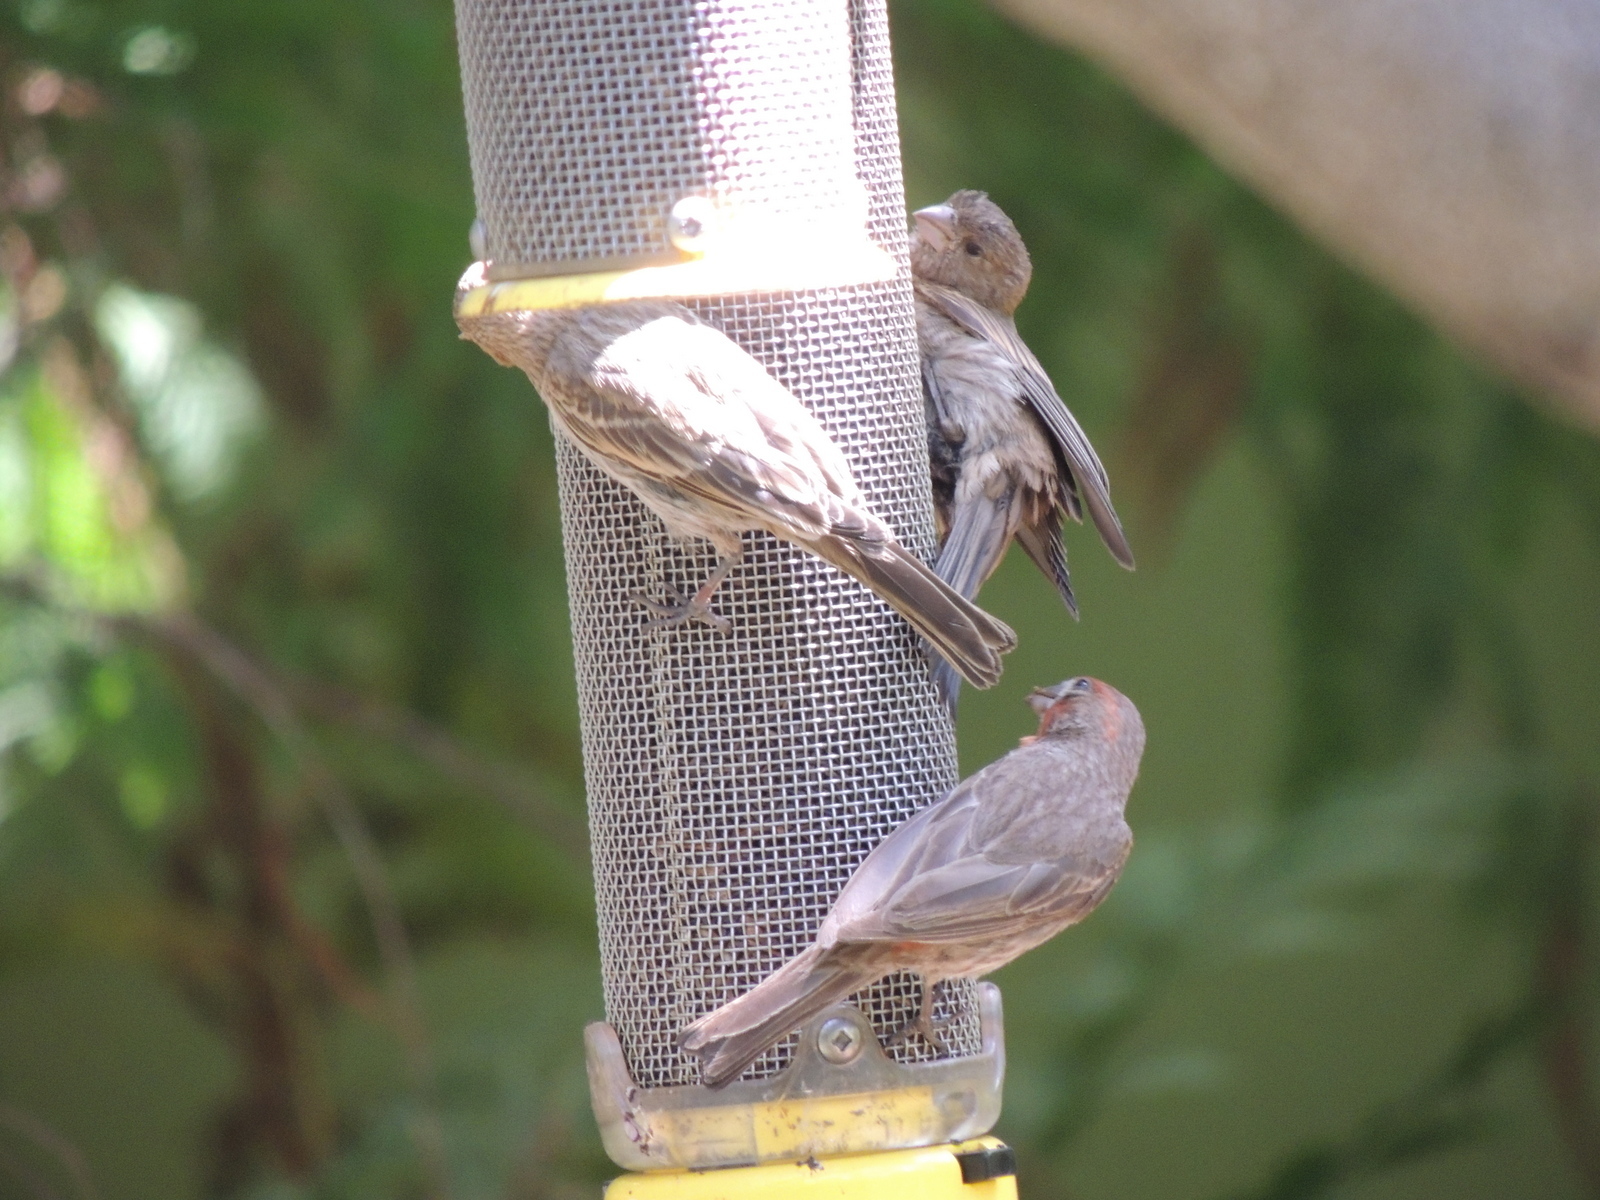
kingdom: Animalia
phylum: Chordata
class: Aves
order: Passeriformes
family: Fringillidae
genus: Haemorhous
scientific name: Haemorhous mexicanus
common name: House finch
